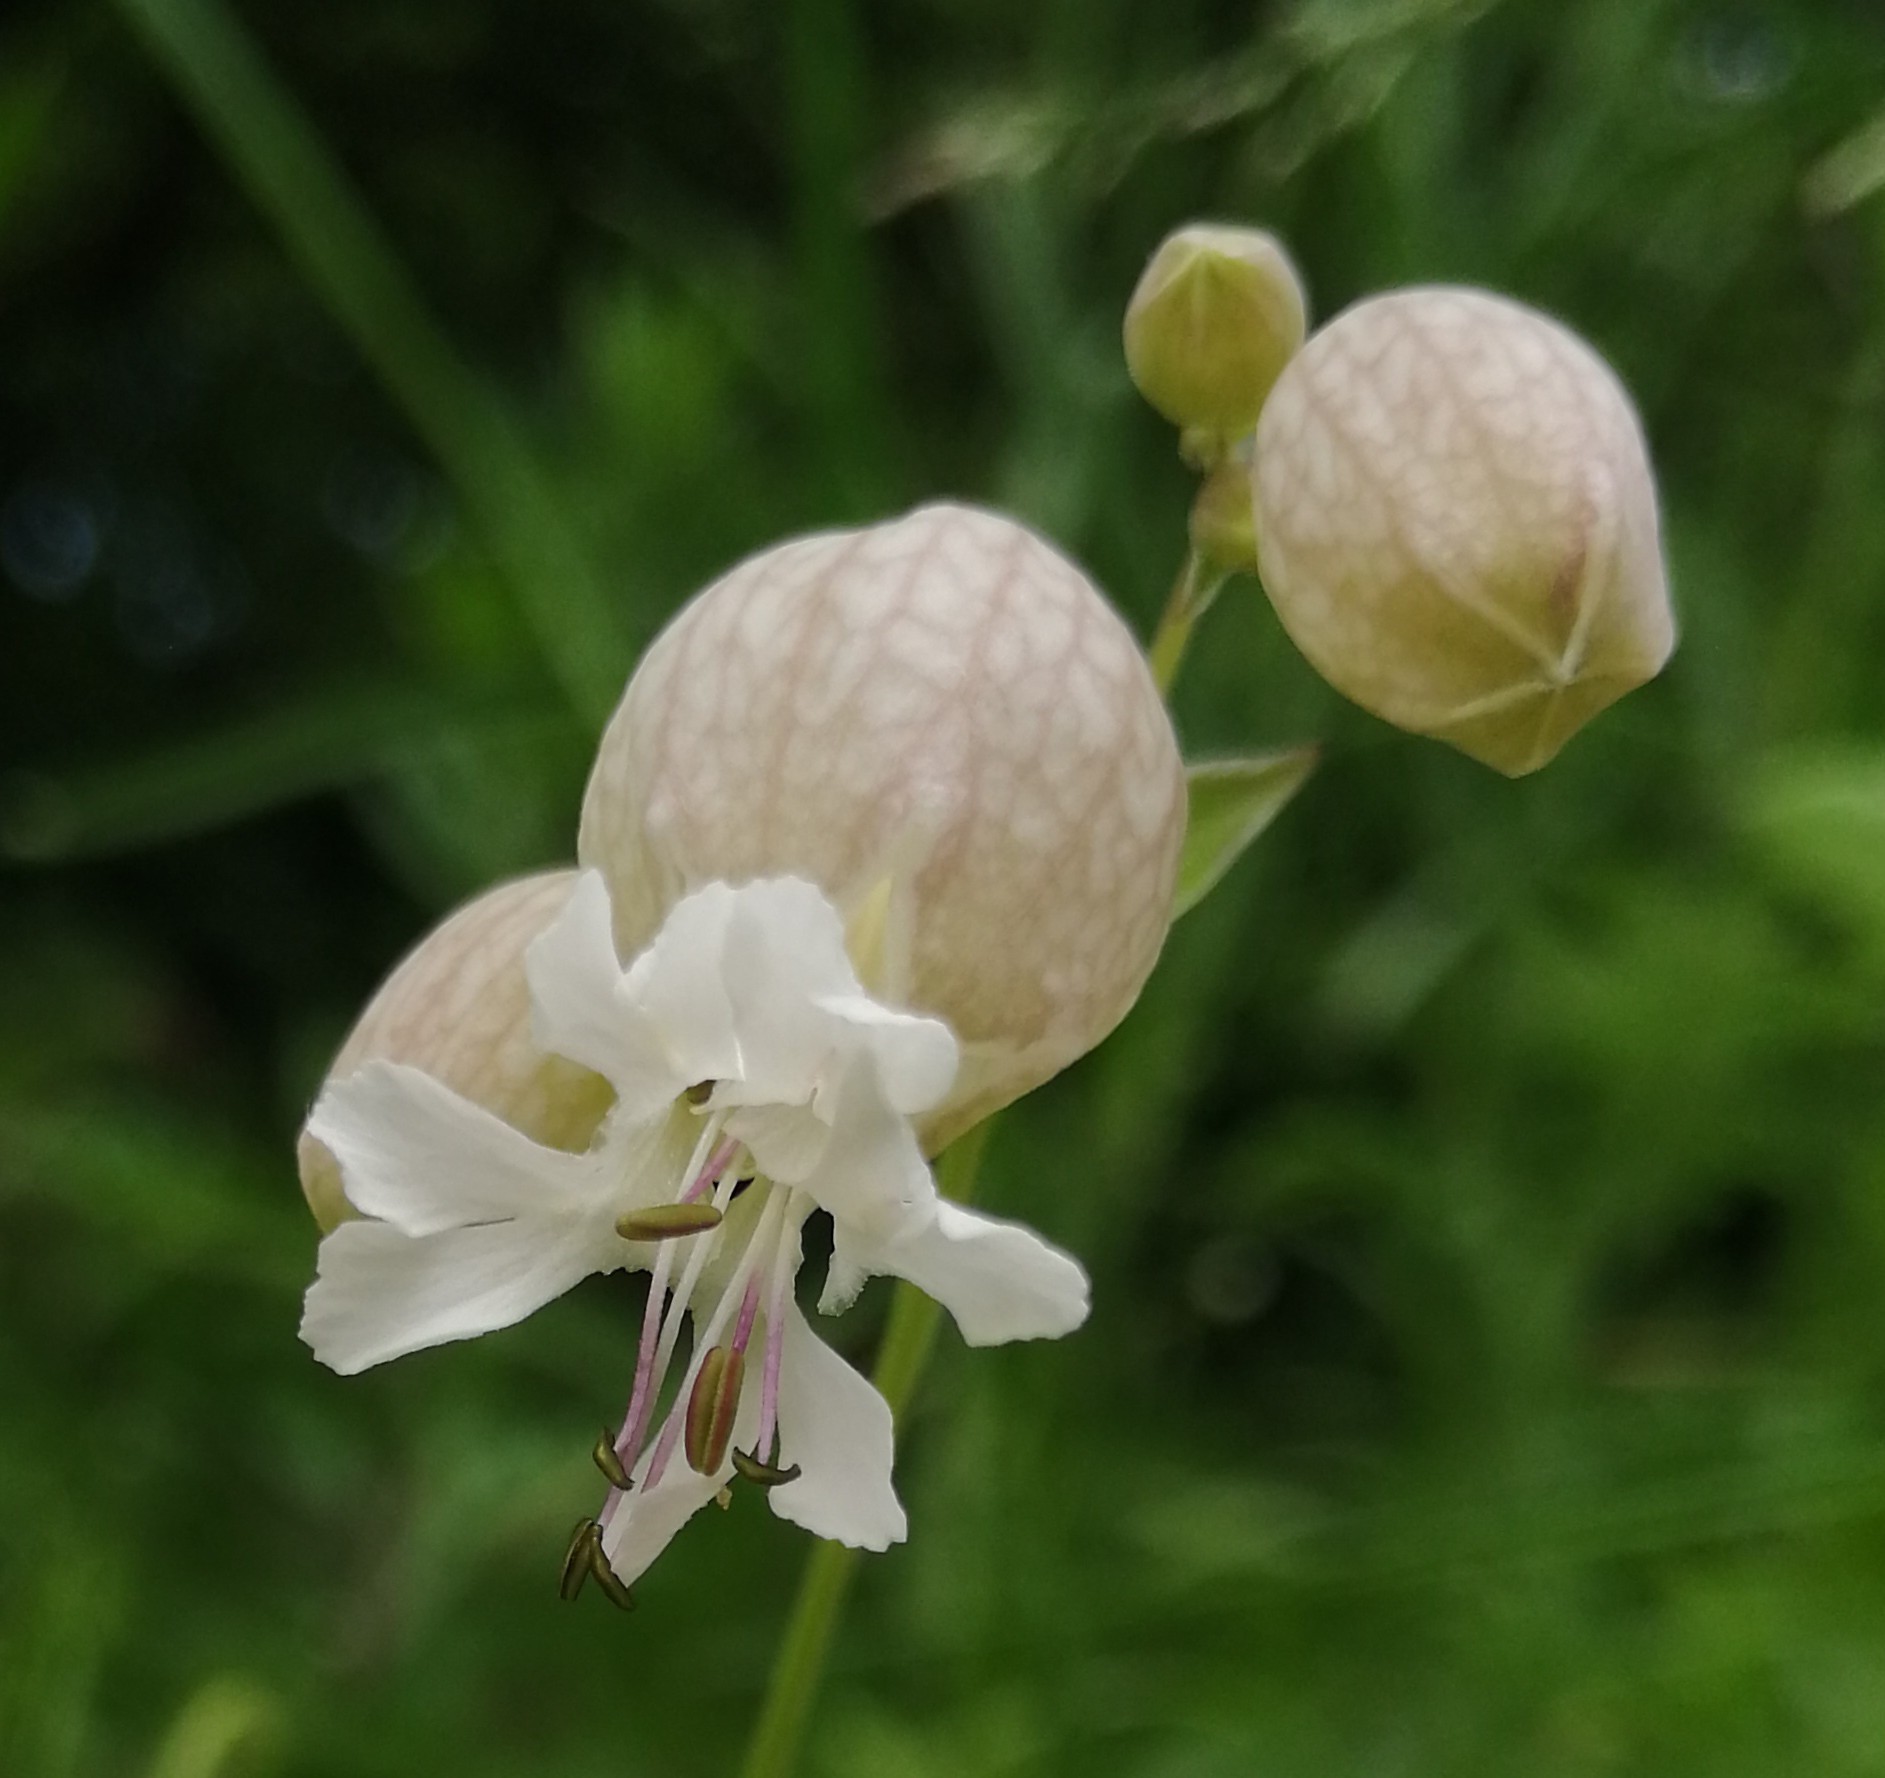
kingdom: Plantae
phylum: Tracheophyta
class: Magnoliopsida
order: Caryophyllales
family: Caryophyllaceae
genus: Silene
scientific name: Silene vulgaris
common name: Bladder campion
